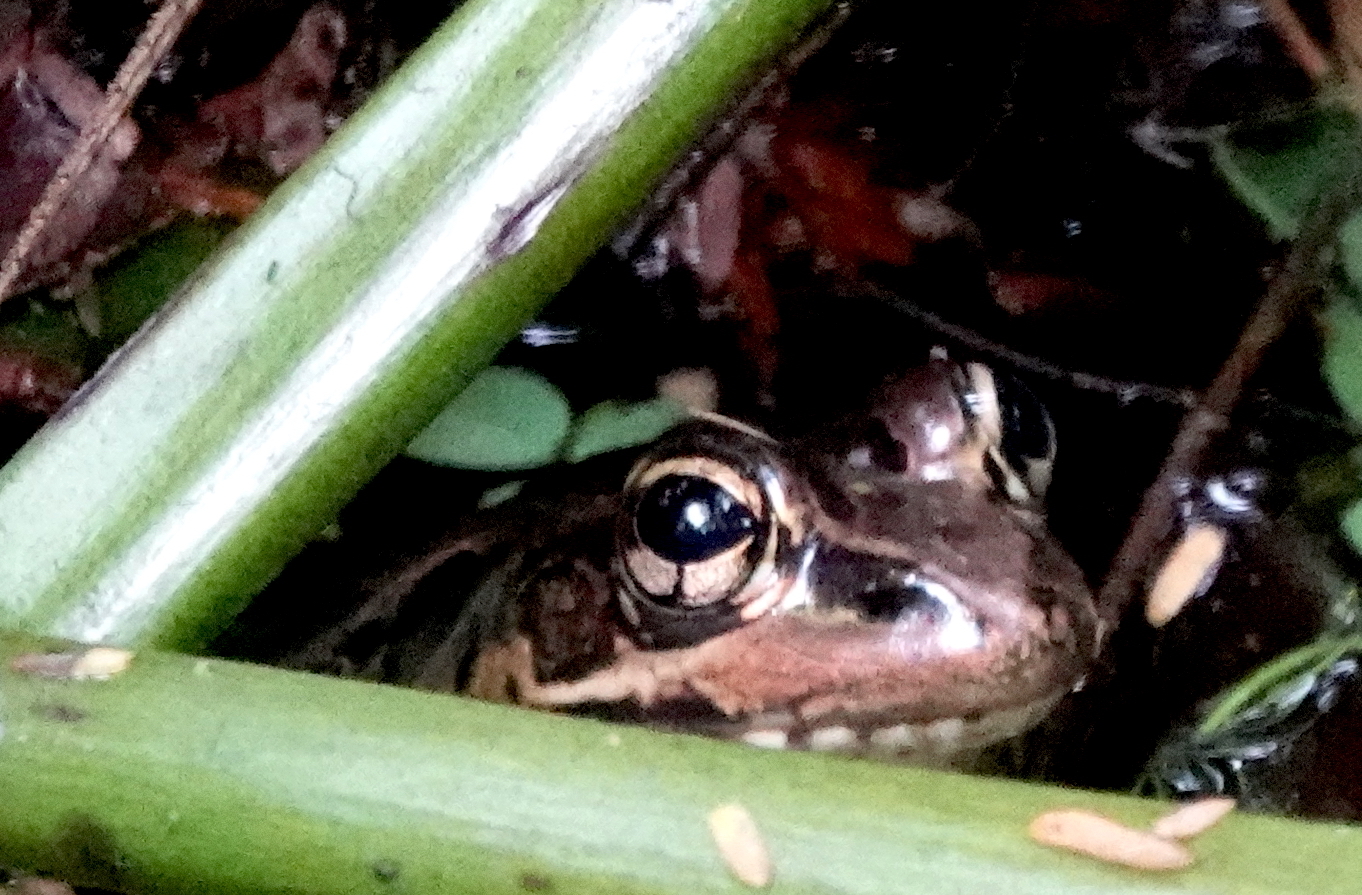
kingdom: Animalia
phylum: Chordata
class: Amphibia
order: Anura
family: Ranidae
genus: Lithobates
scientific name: Lithobates taylori
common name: Peralta frog
